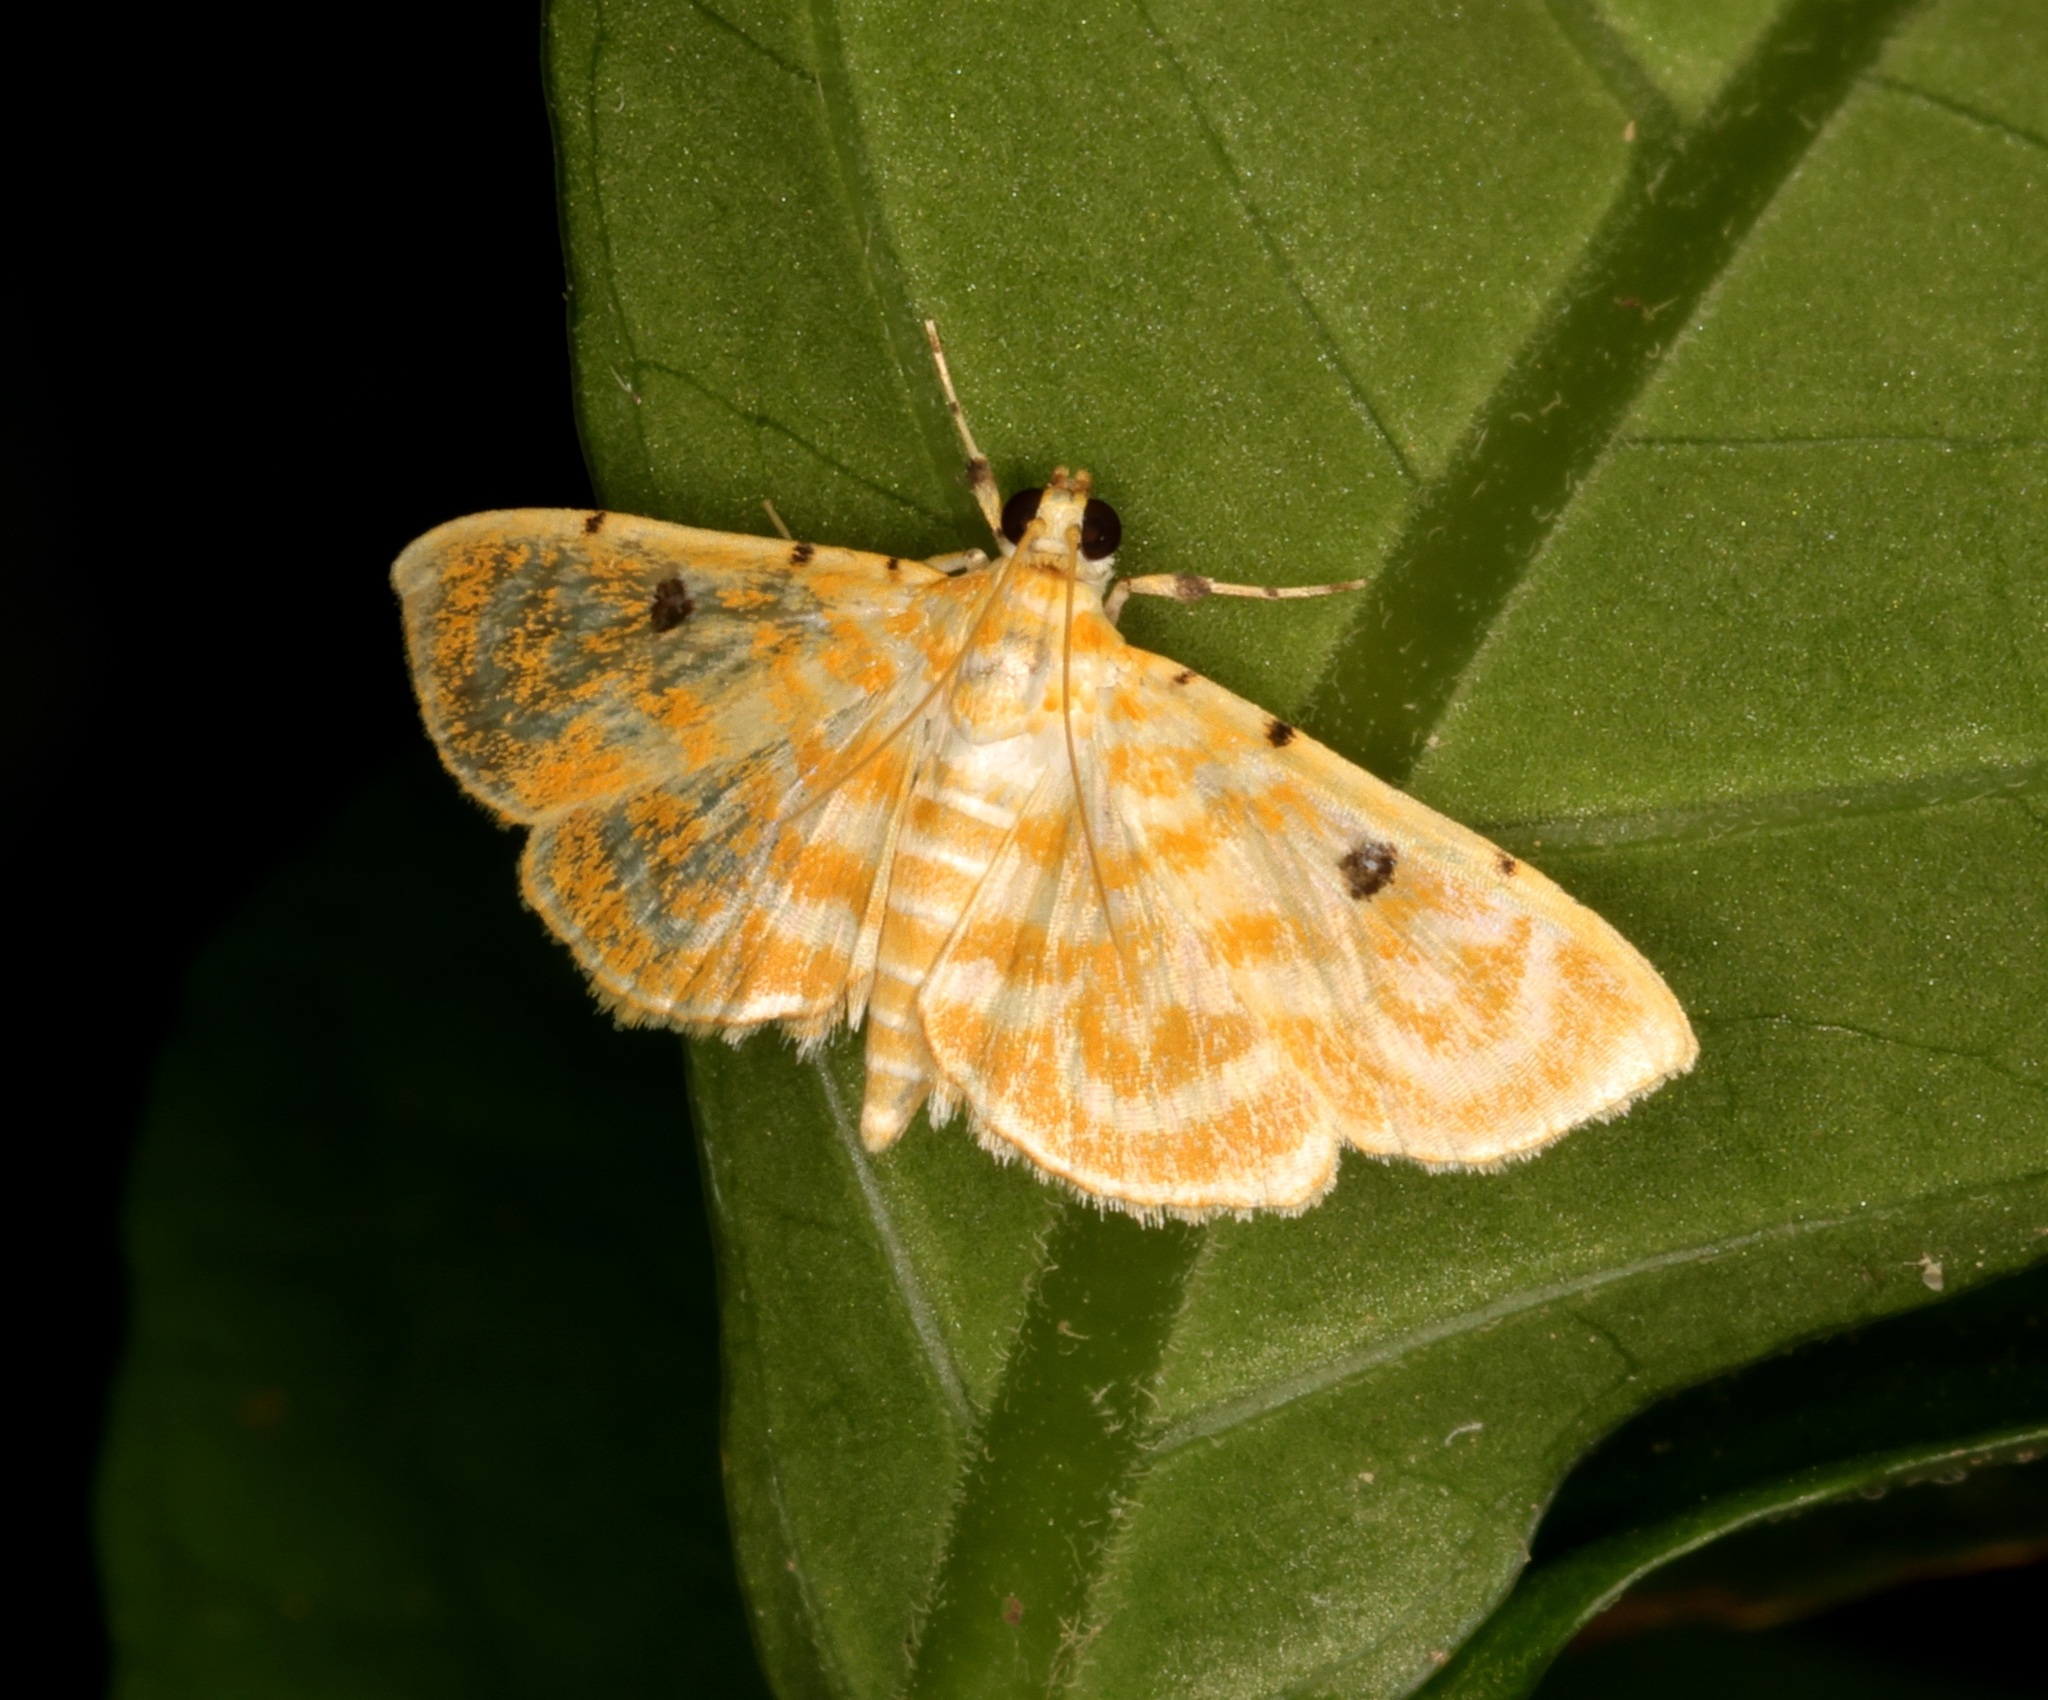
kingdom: Animalia
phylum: Arthropoda
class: Insecta
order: Lepidoptera
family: Crambidae
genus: Notarcha
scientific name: Notarcha aurolinealis
